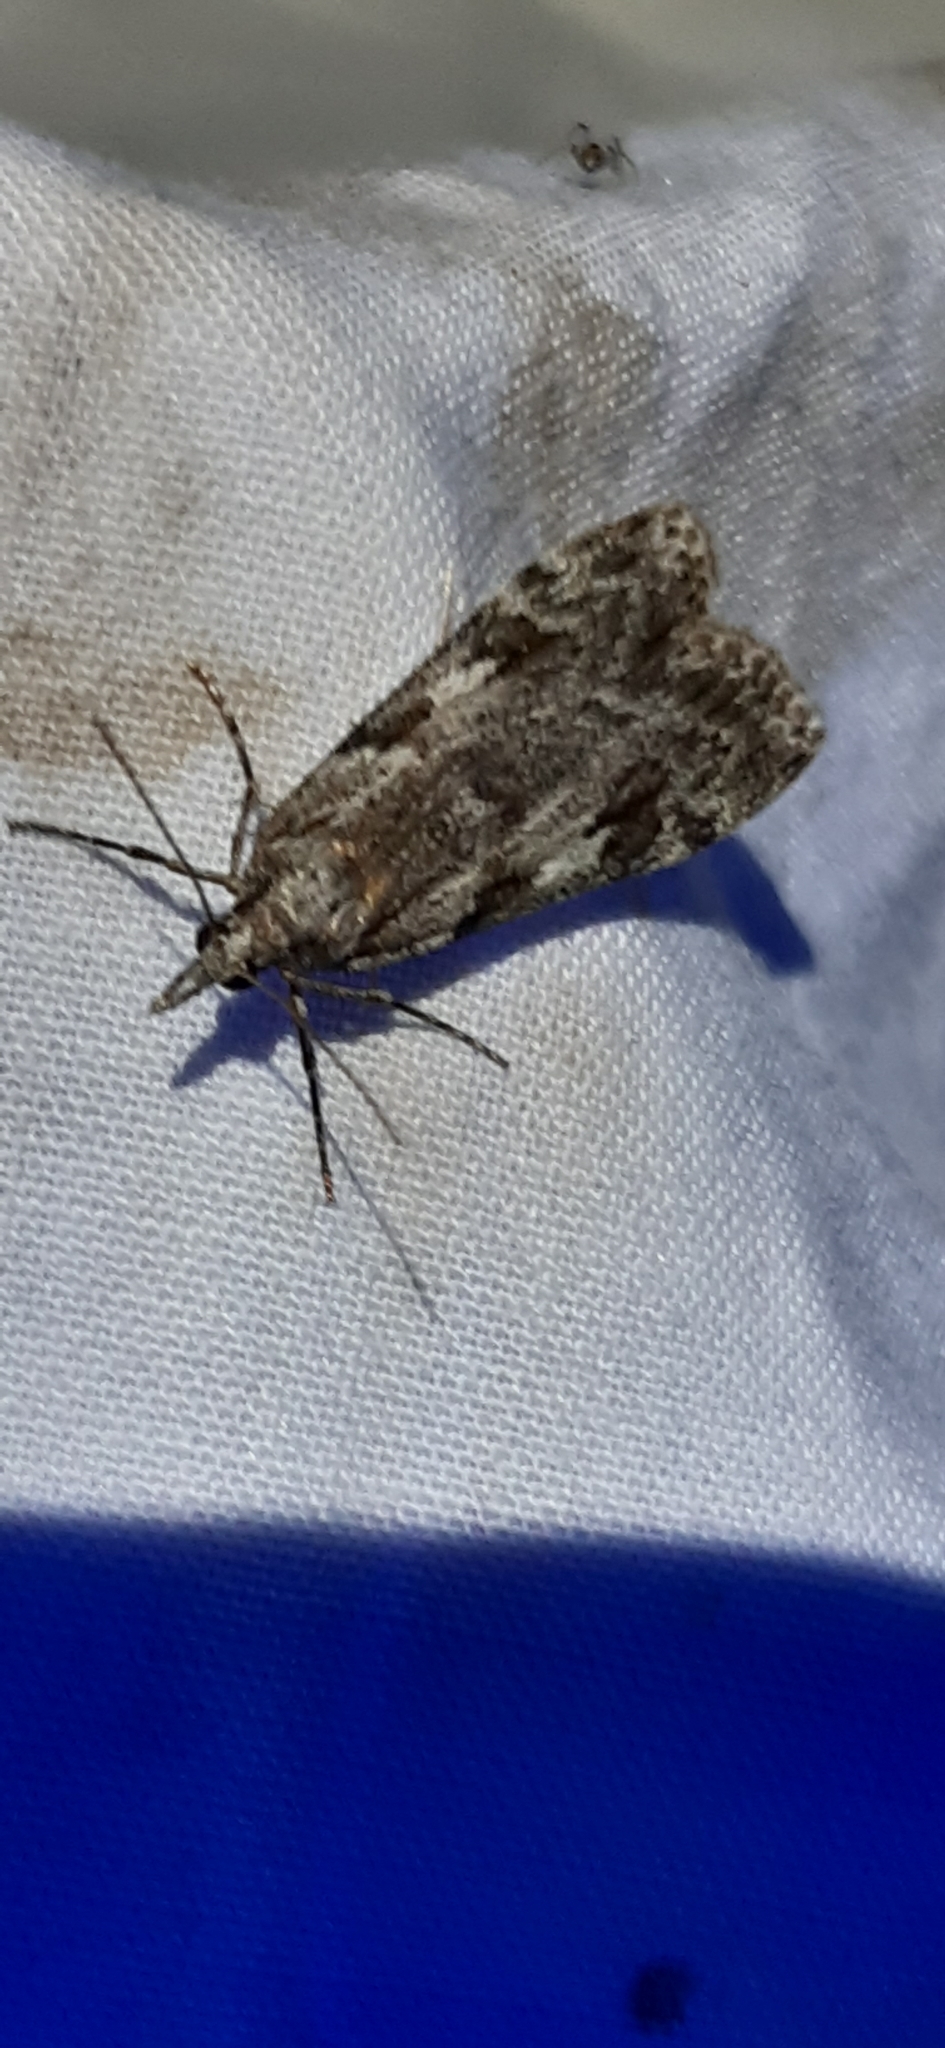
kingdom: Animalia
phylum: Arthropoda
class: Insecta
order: Lepidoptera
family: Crambidae
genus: Scoparia
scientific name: Scoparia halopis
